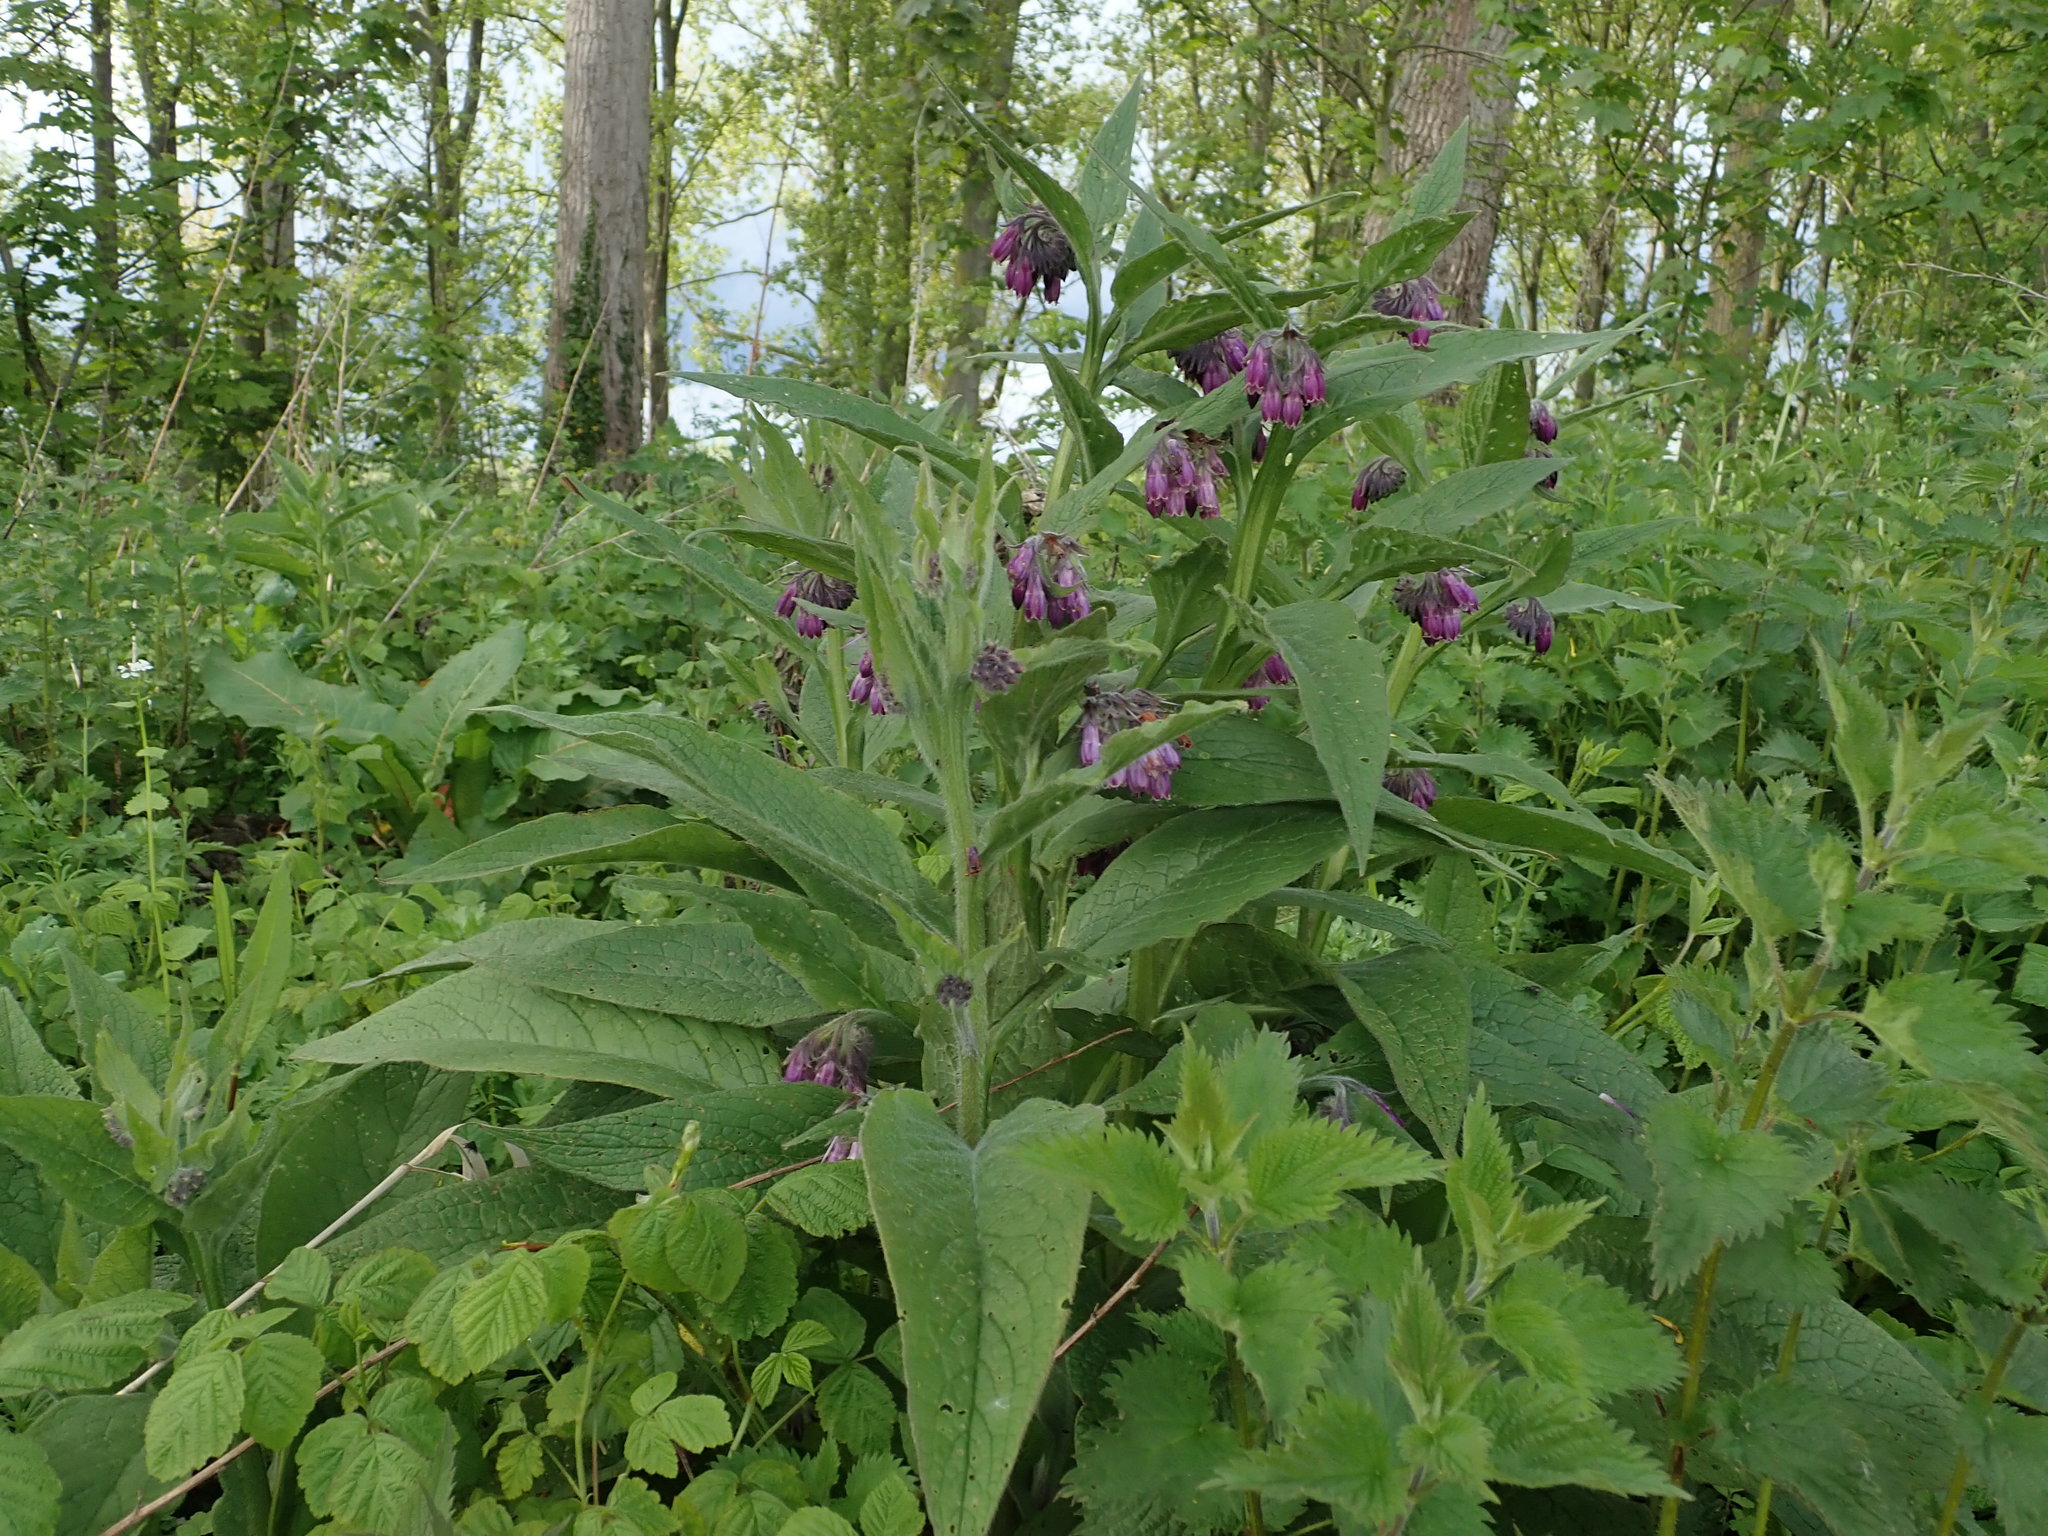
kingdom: Plantae
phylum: Tracheophyta
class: Magnoliopsida
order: Boraginales
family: Boraginaceae
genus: Symphytum
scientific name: Symphytum officinale
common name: Common comfrey
